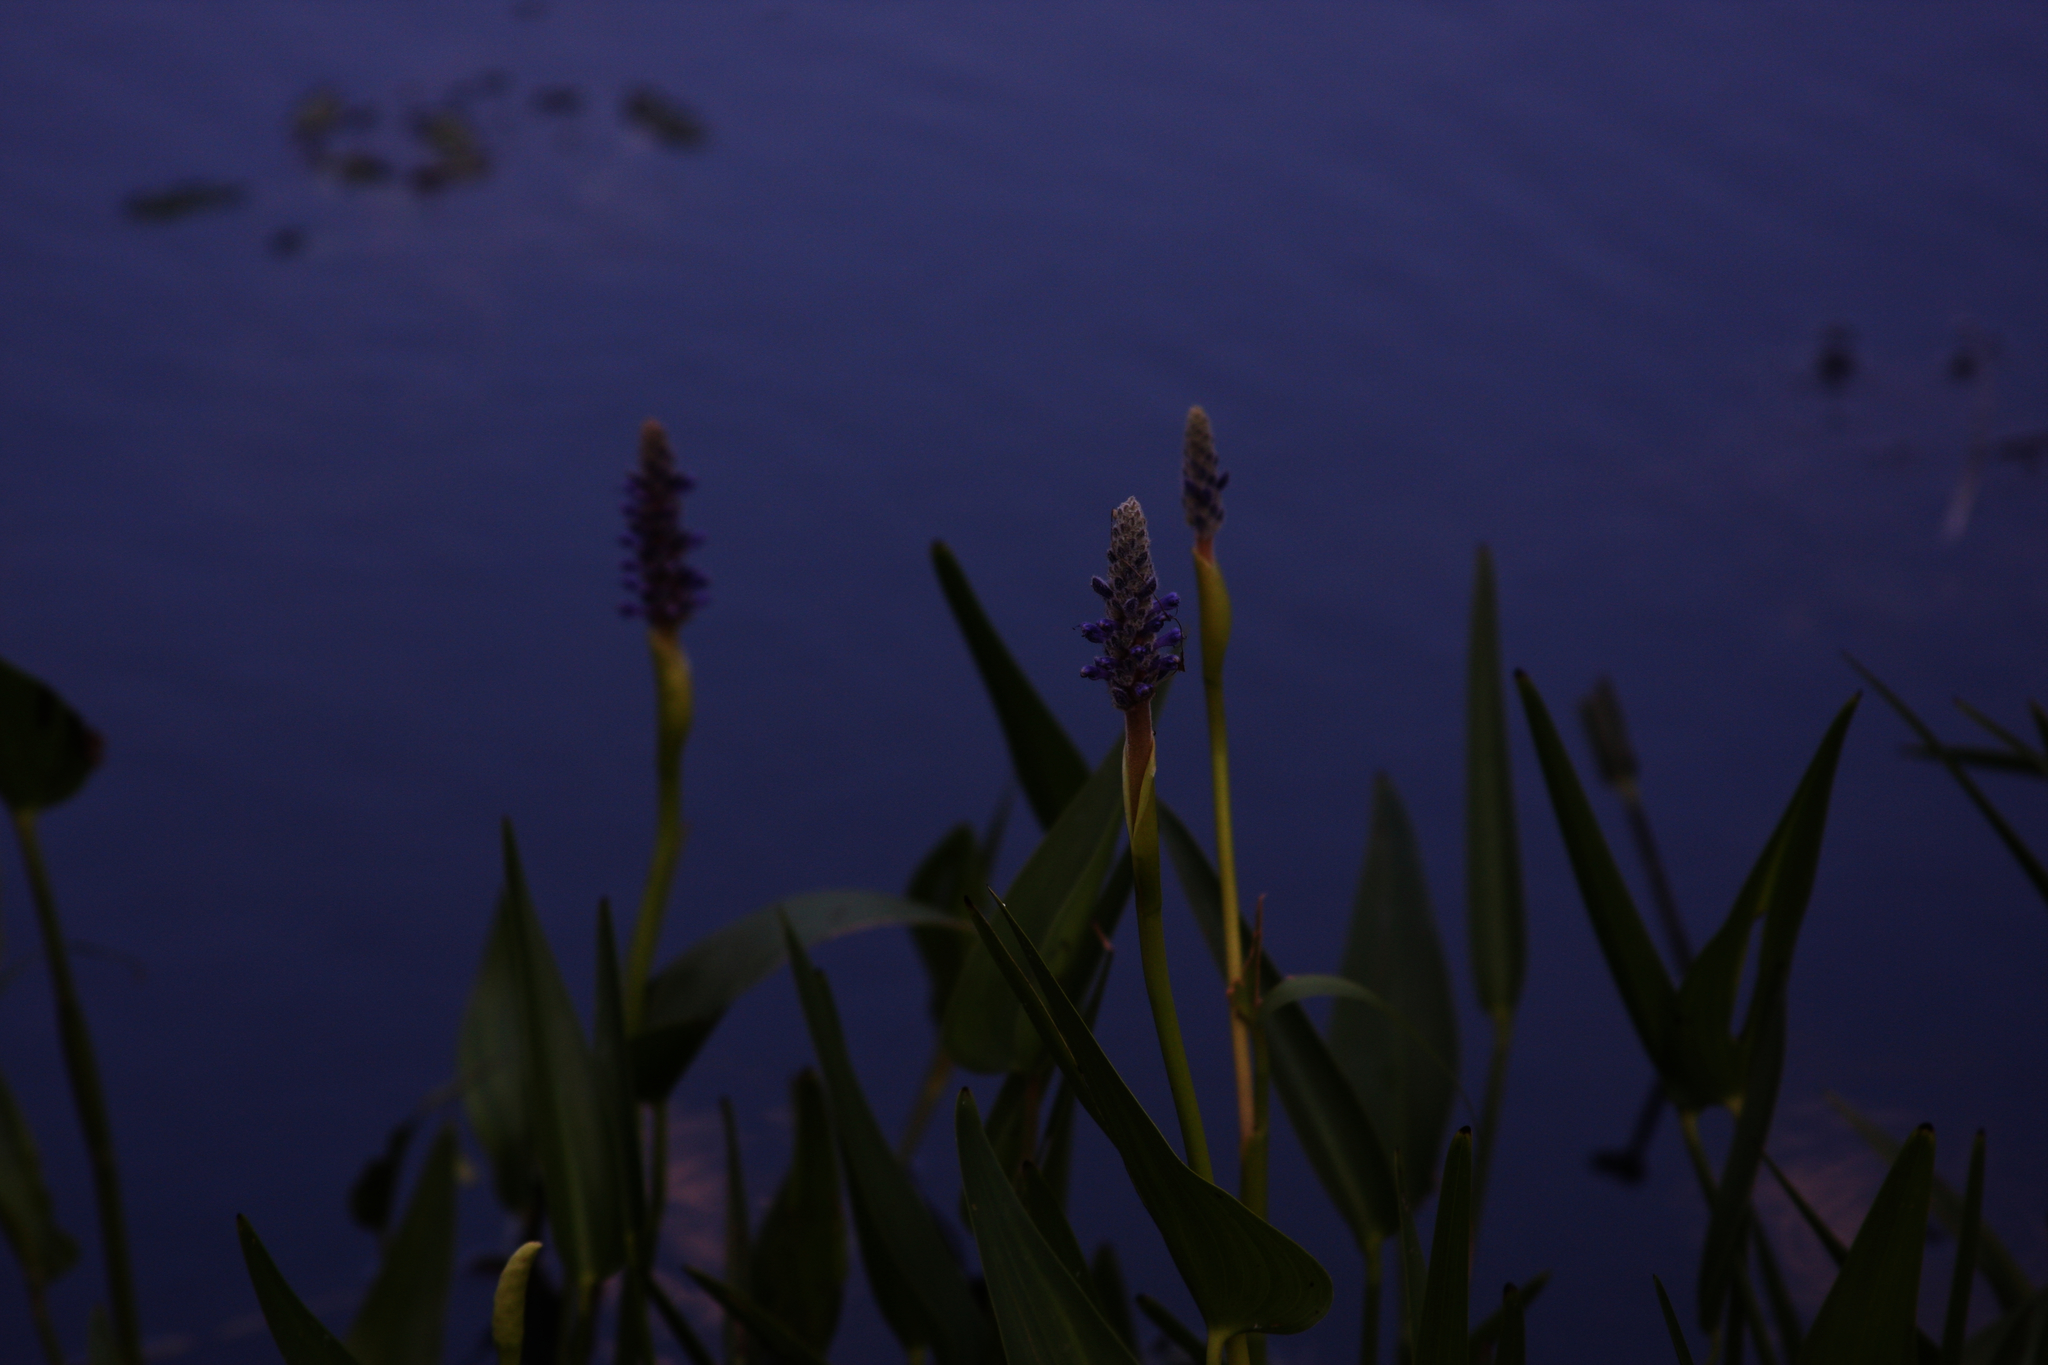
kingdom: Plantae
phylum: Tracheophyta
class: Liliopsida
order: Commelinales
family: Pontederiaceae
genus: Pontederia
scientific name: Pontederia cordata
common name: Pickerelweed
